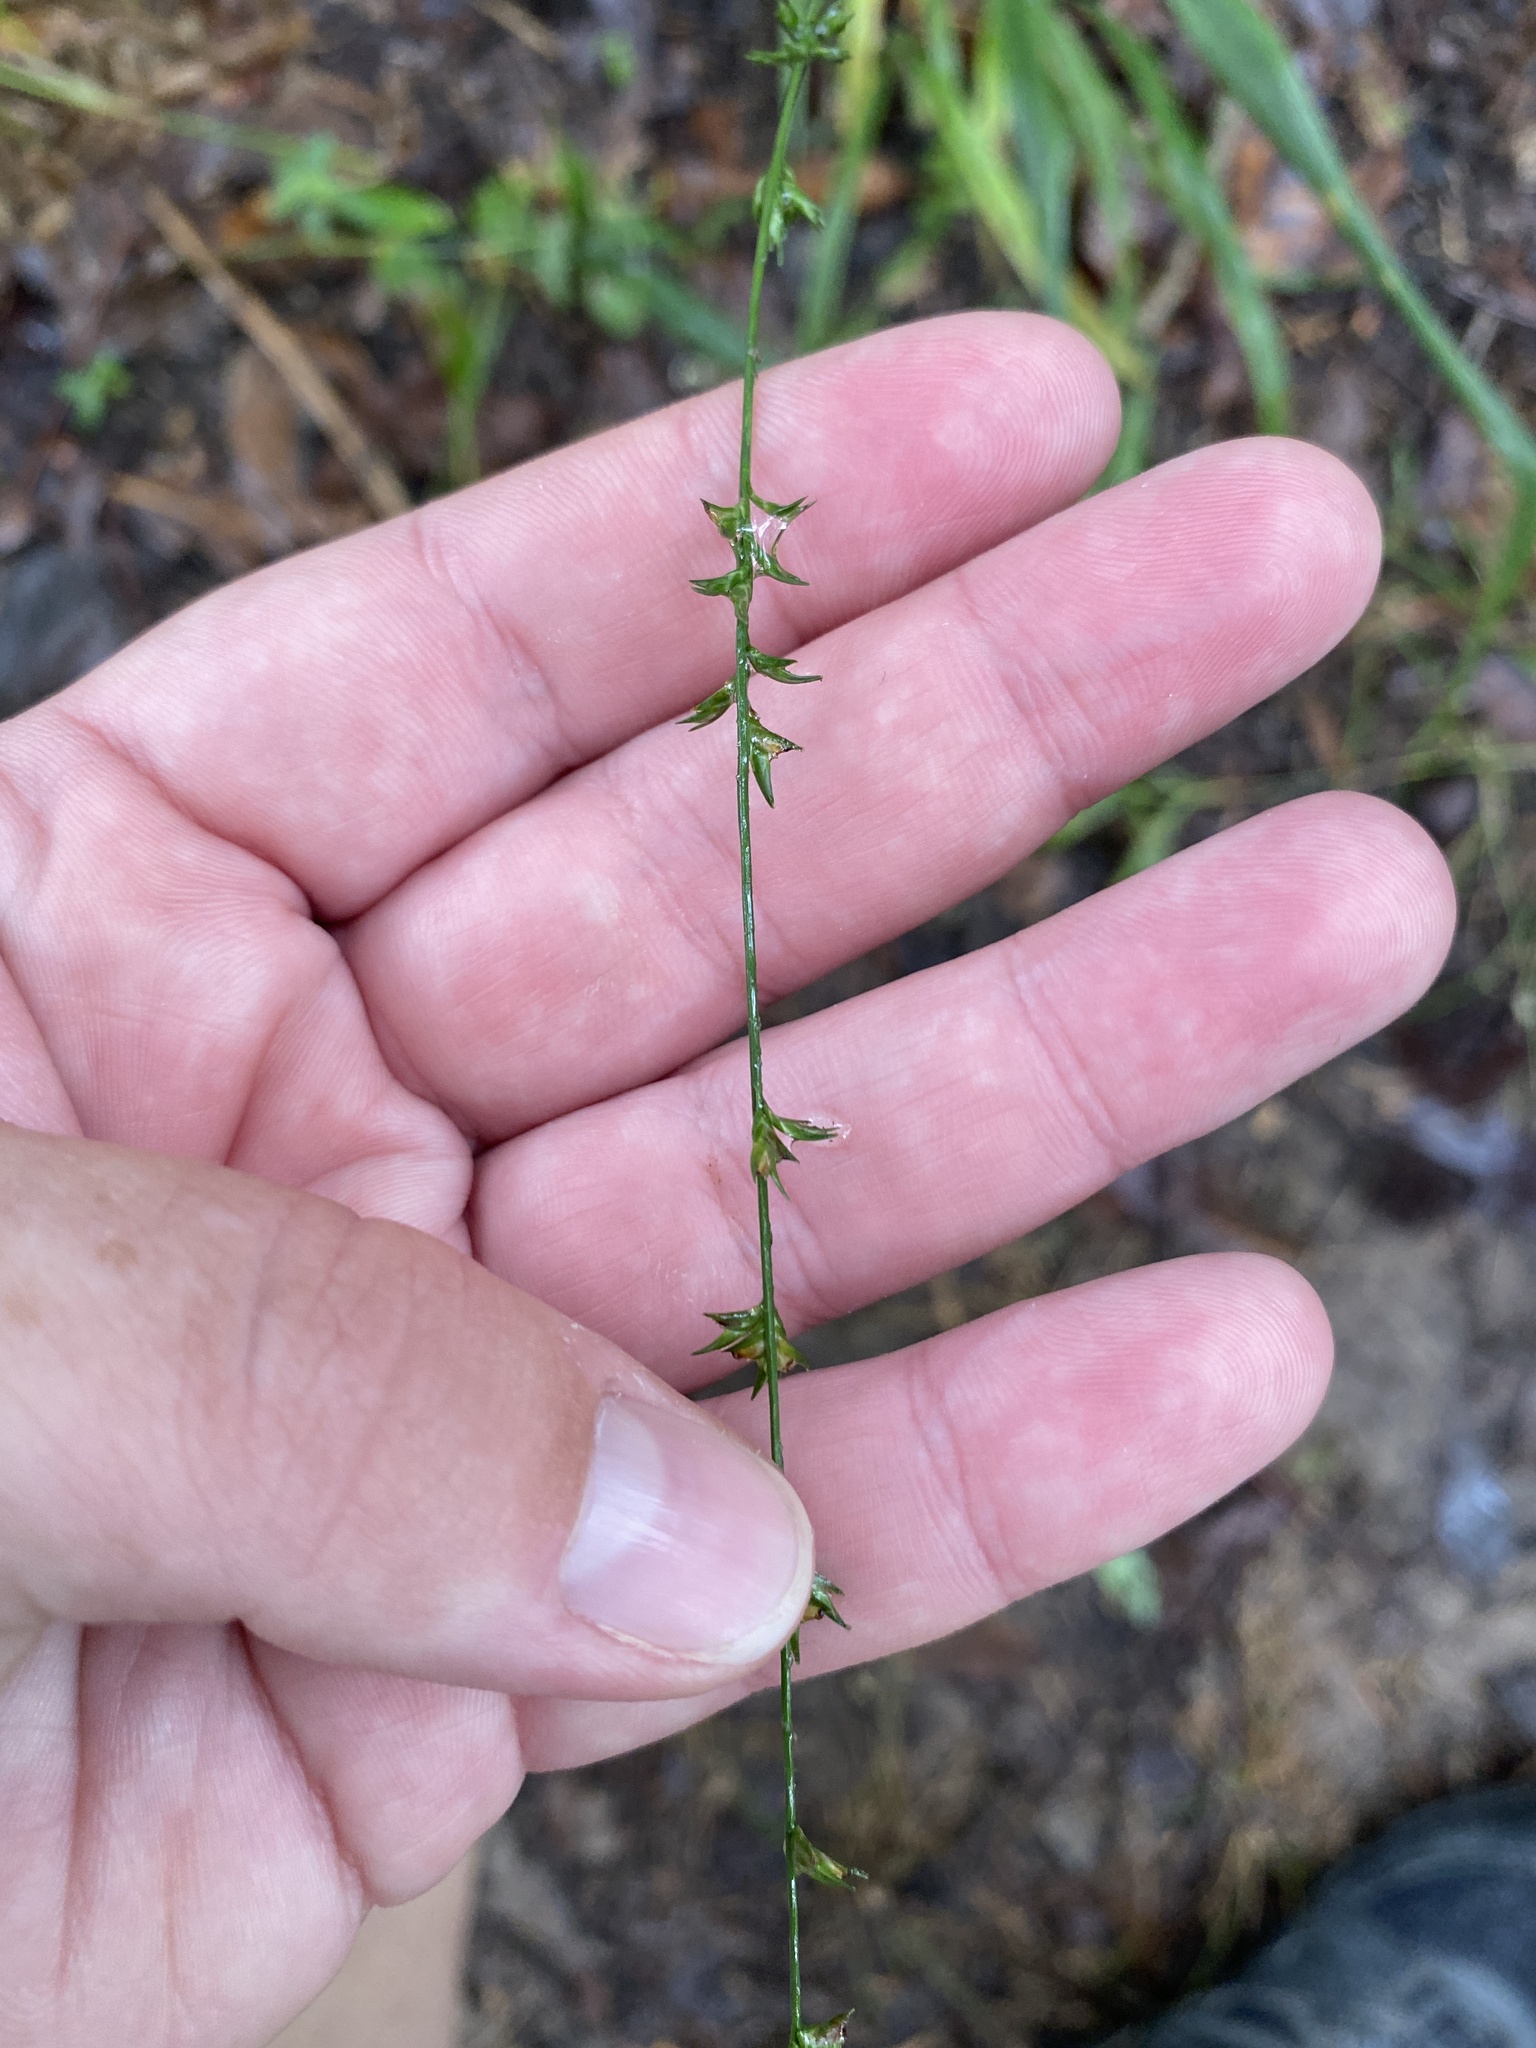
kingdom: Plantae
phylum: Tracheophyta
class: Liliopsida
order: Poales
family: Poaceae
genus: Chasmanthium
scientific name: Chasmanthium laxum
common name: Slender chasmanthium
